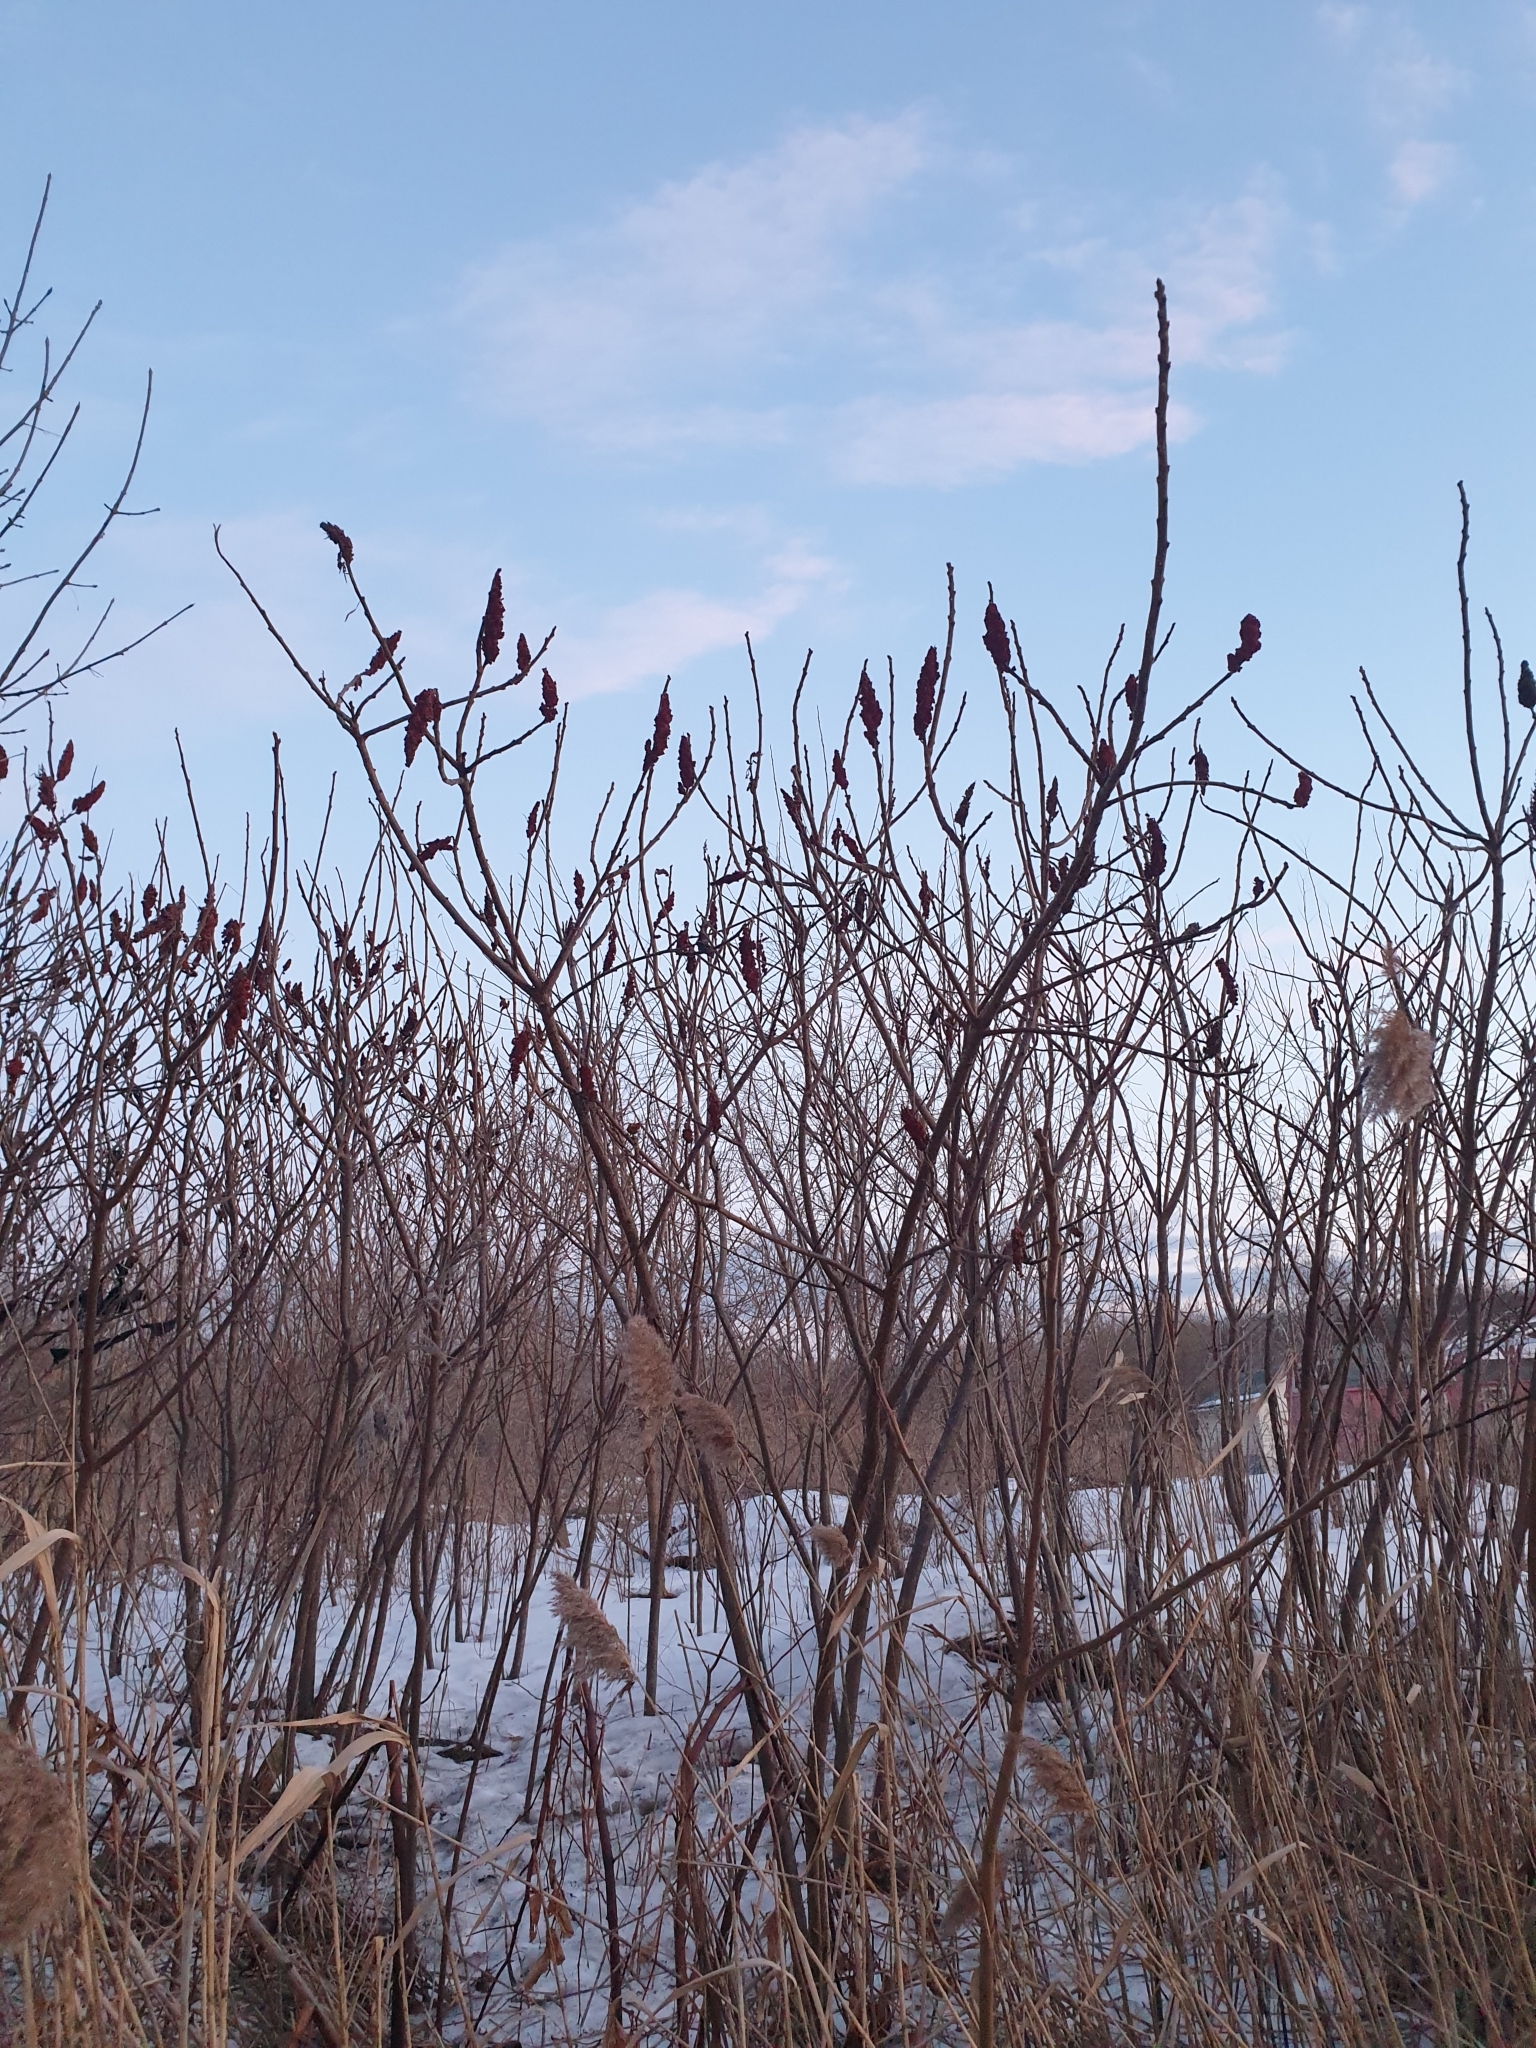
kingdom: Plantae
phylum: Tracheophyta
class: Magnoliopsida
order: Sapindales
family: Anacardiaceae
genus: Rhus
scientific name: Rhus typhina
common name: Staghorn sumac
